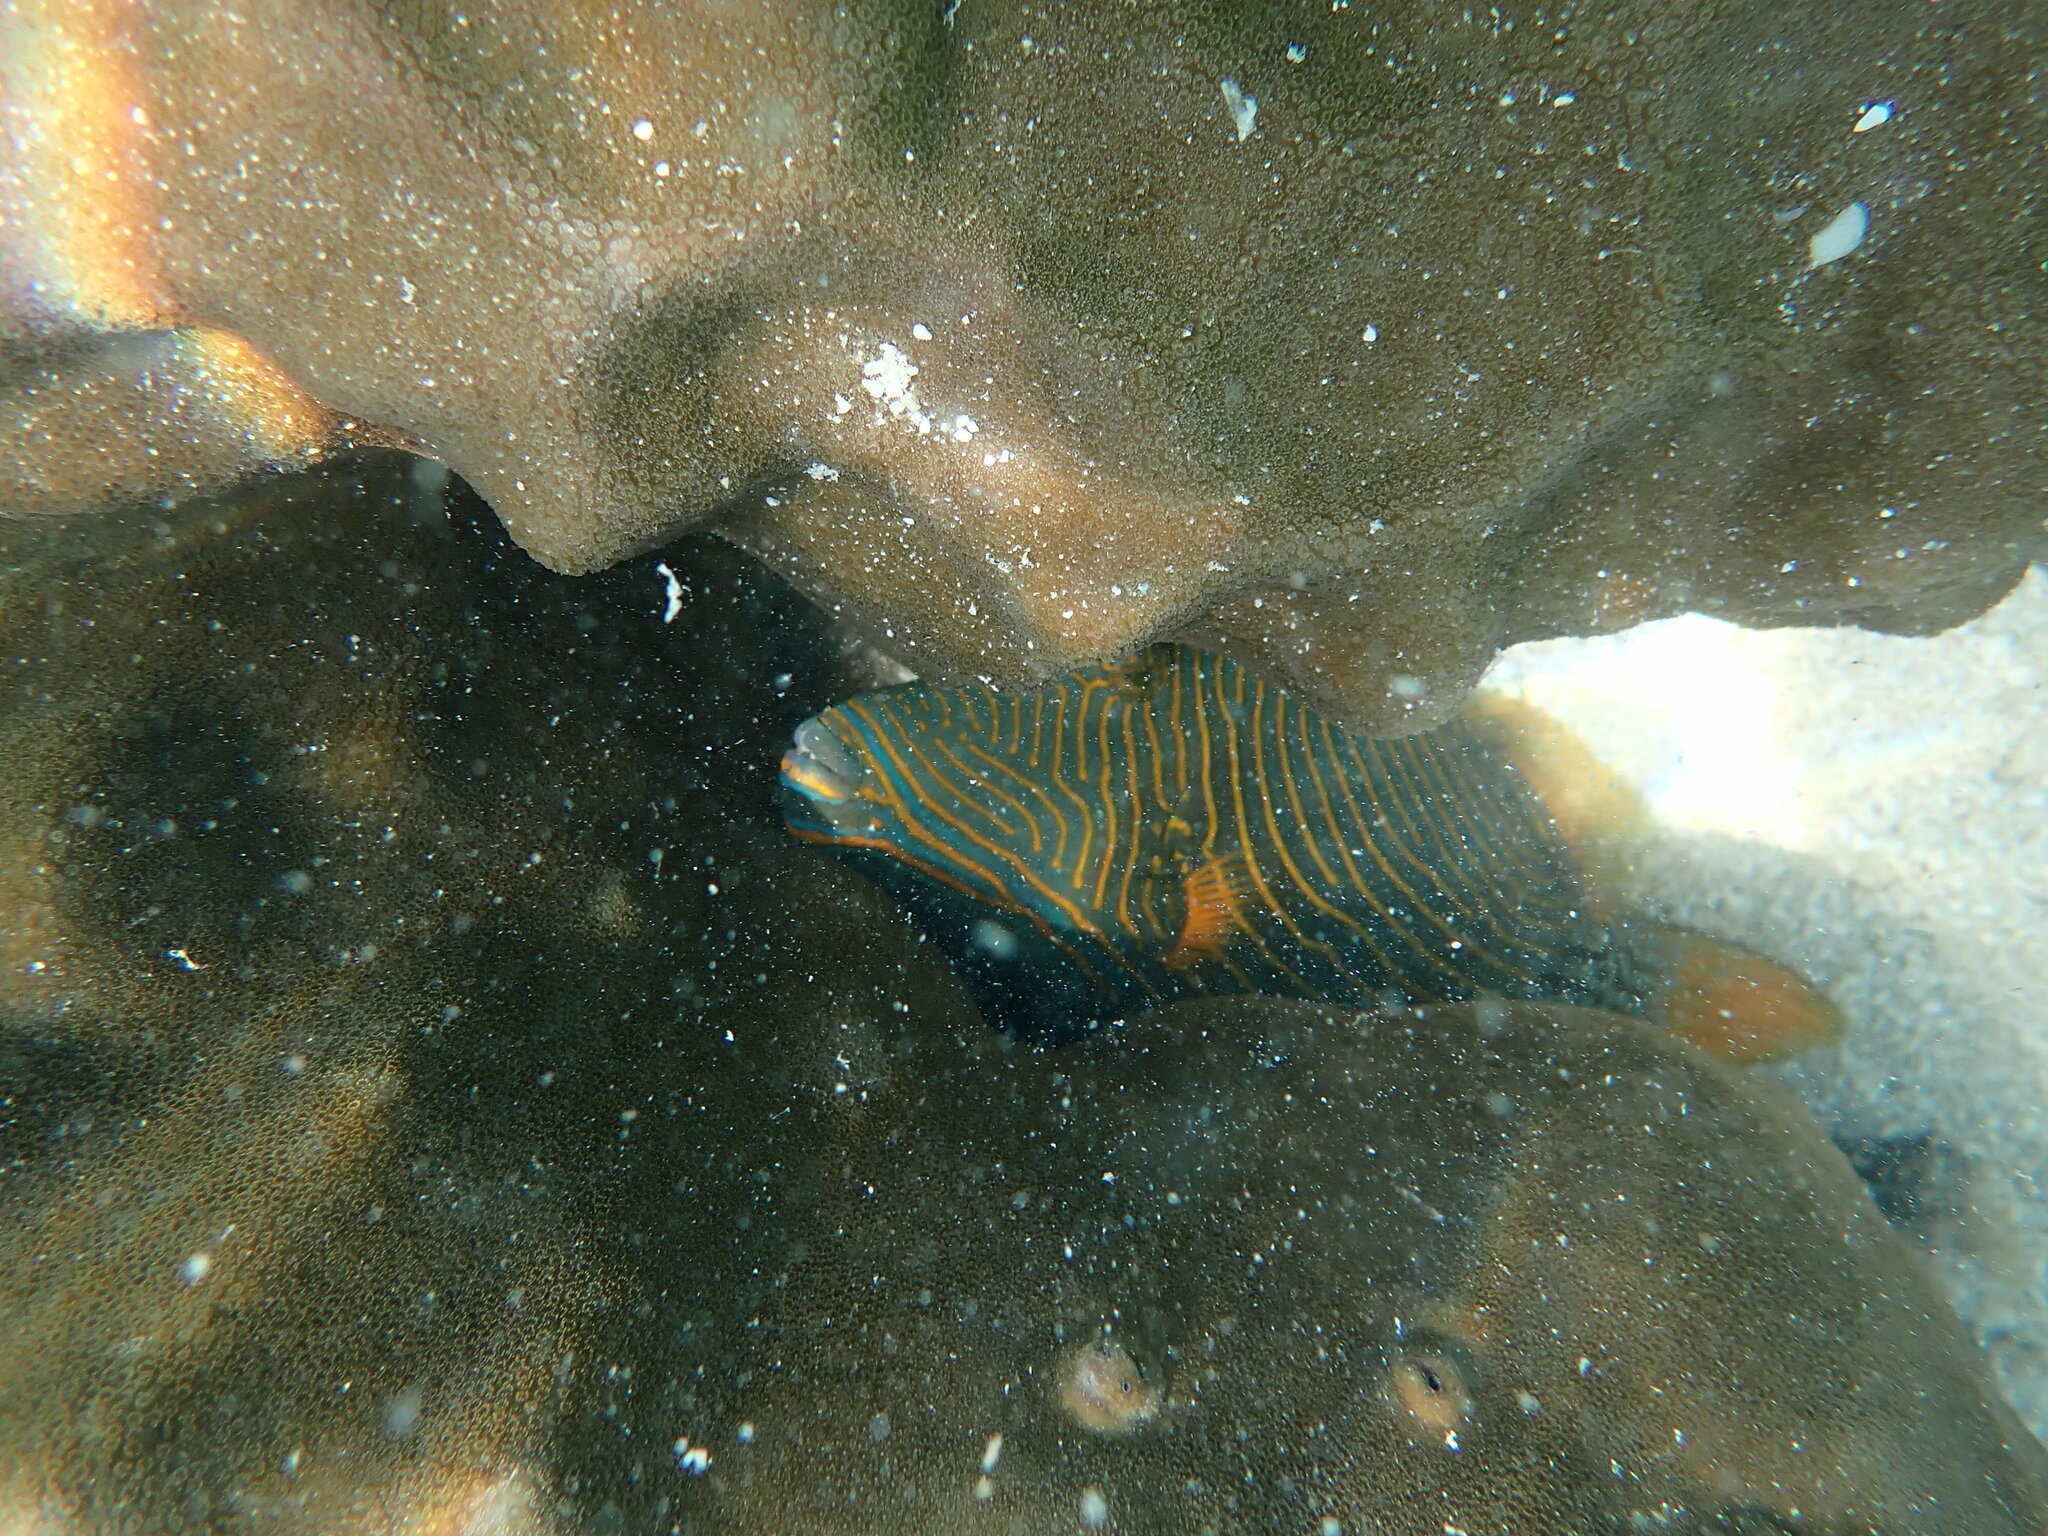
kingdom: Animalia
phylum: Chordata
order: Tetraodontiformes
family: Balistidae
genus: Balistapus
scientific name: Balistapus undulatus
